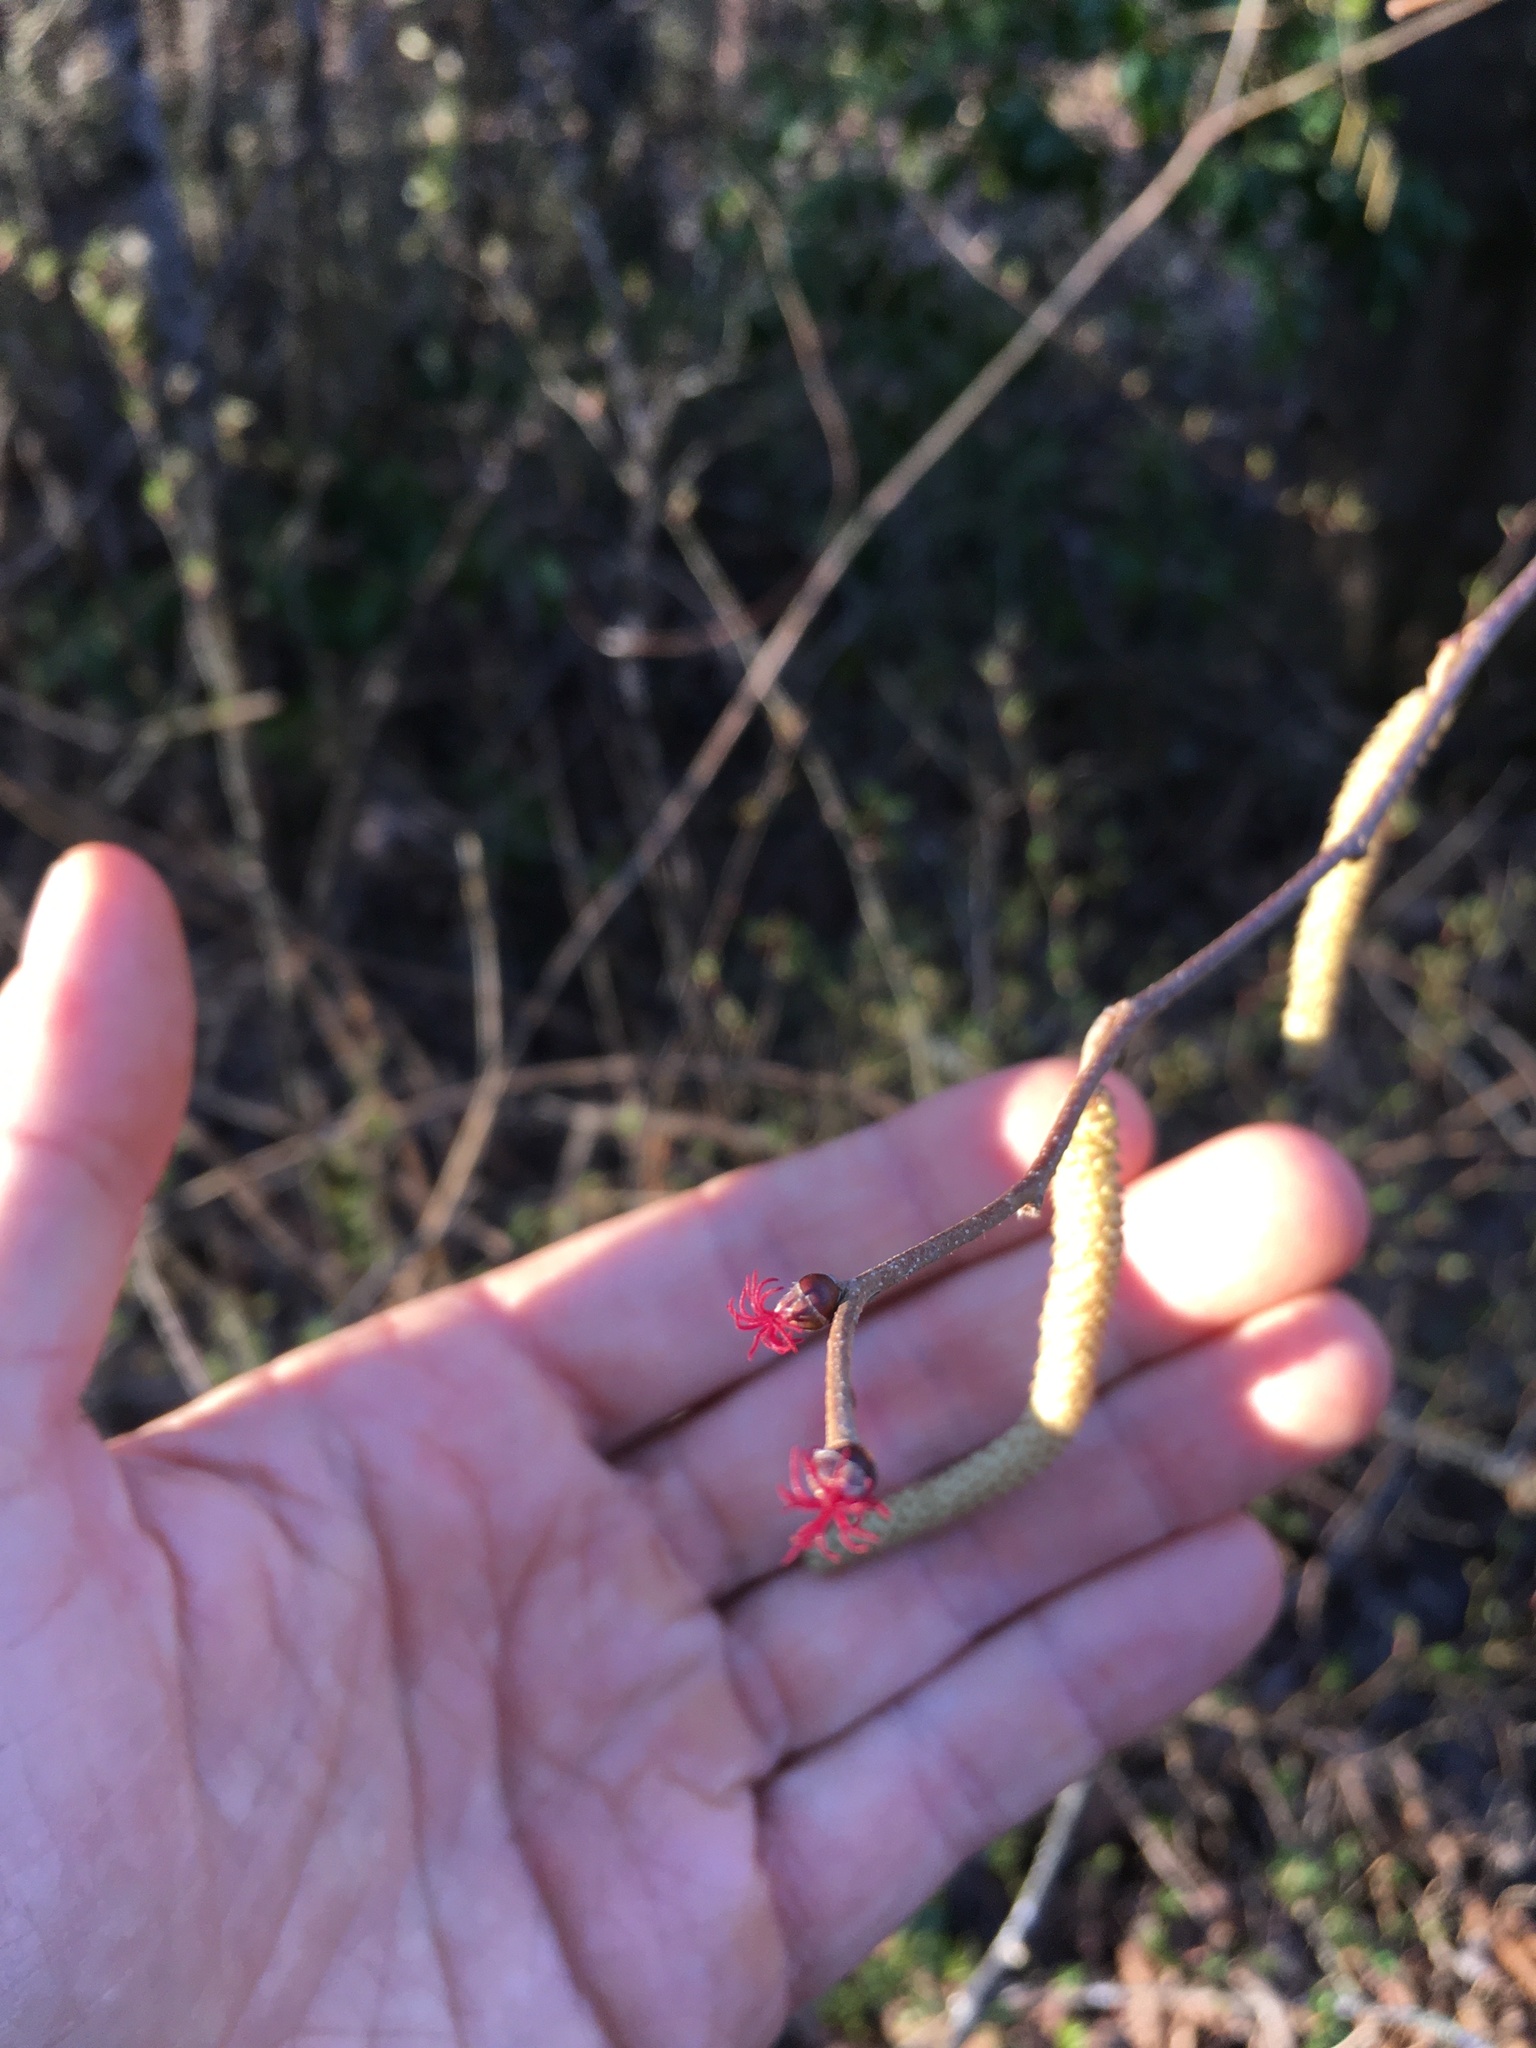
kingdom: Plantae
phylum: Tracheophyta
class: Magnoliopsida
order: Fagales
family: Betulaceae
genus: Corylus
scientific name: Corylus americana
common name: American hazel
